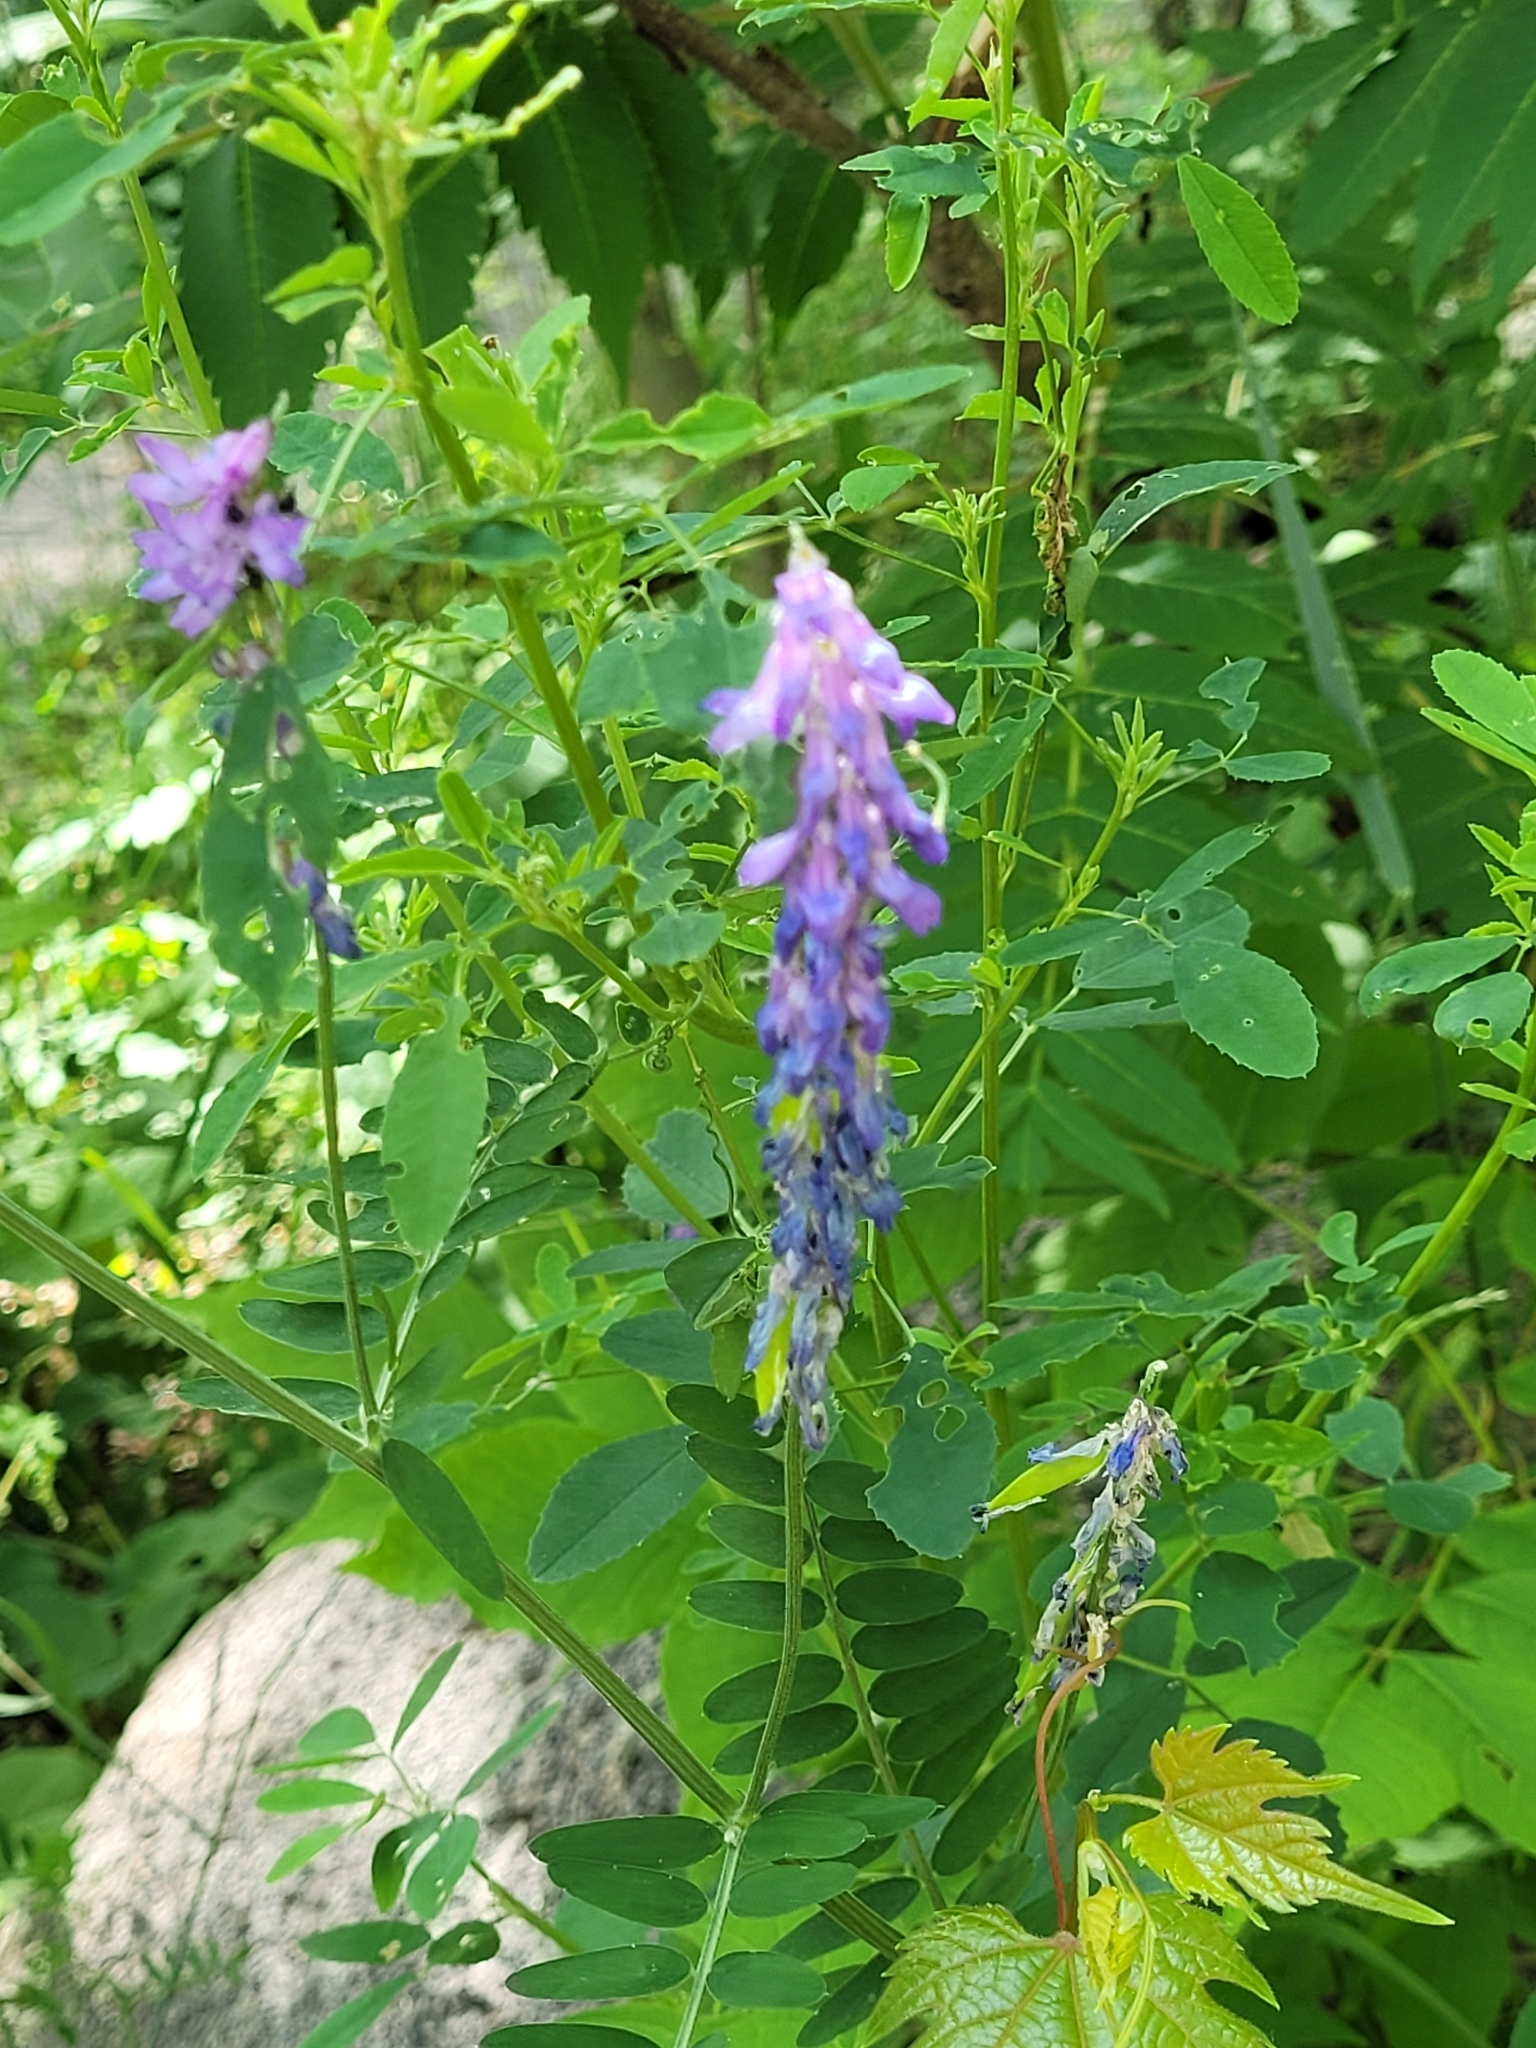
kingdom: Plantae
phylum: Tracheophyta
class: Magnoliopsida
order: Fabales
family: Fabaceae
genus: Vicia
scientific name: Vicia cracca
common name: Bird vetch
